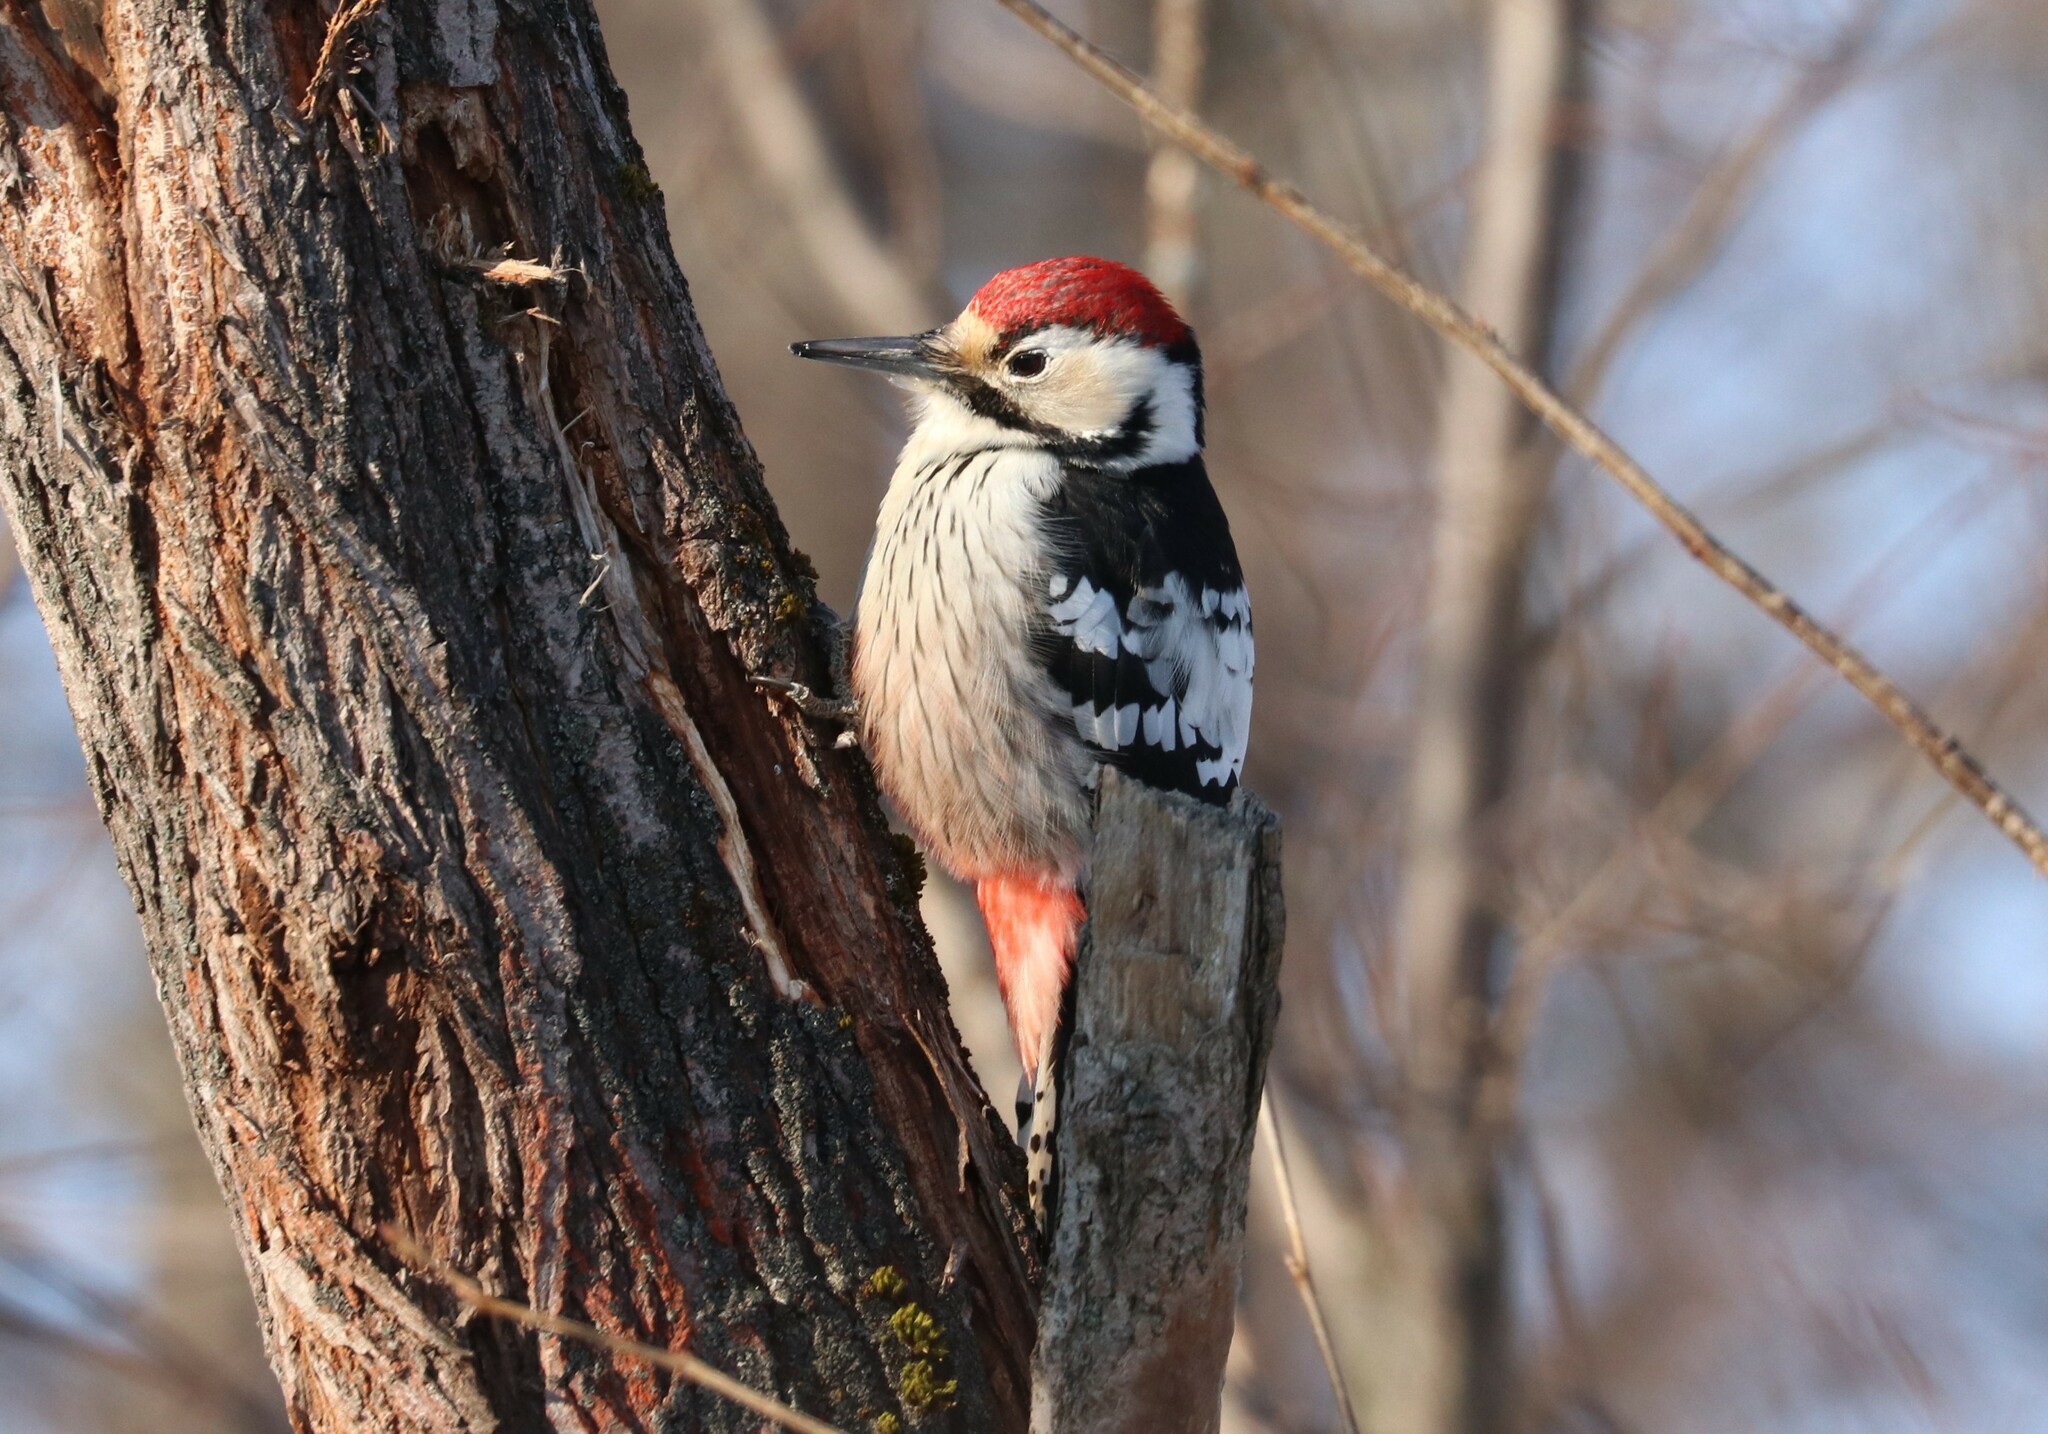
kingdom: Animalia
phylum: Chordata
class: Aves
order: Piciformes
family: Picidae
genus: Dendrocopos
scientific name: Dendrocopos leucotos
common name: White-backed woodpecker
